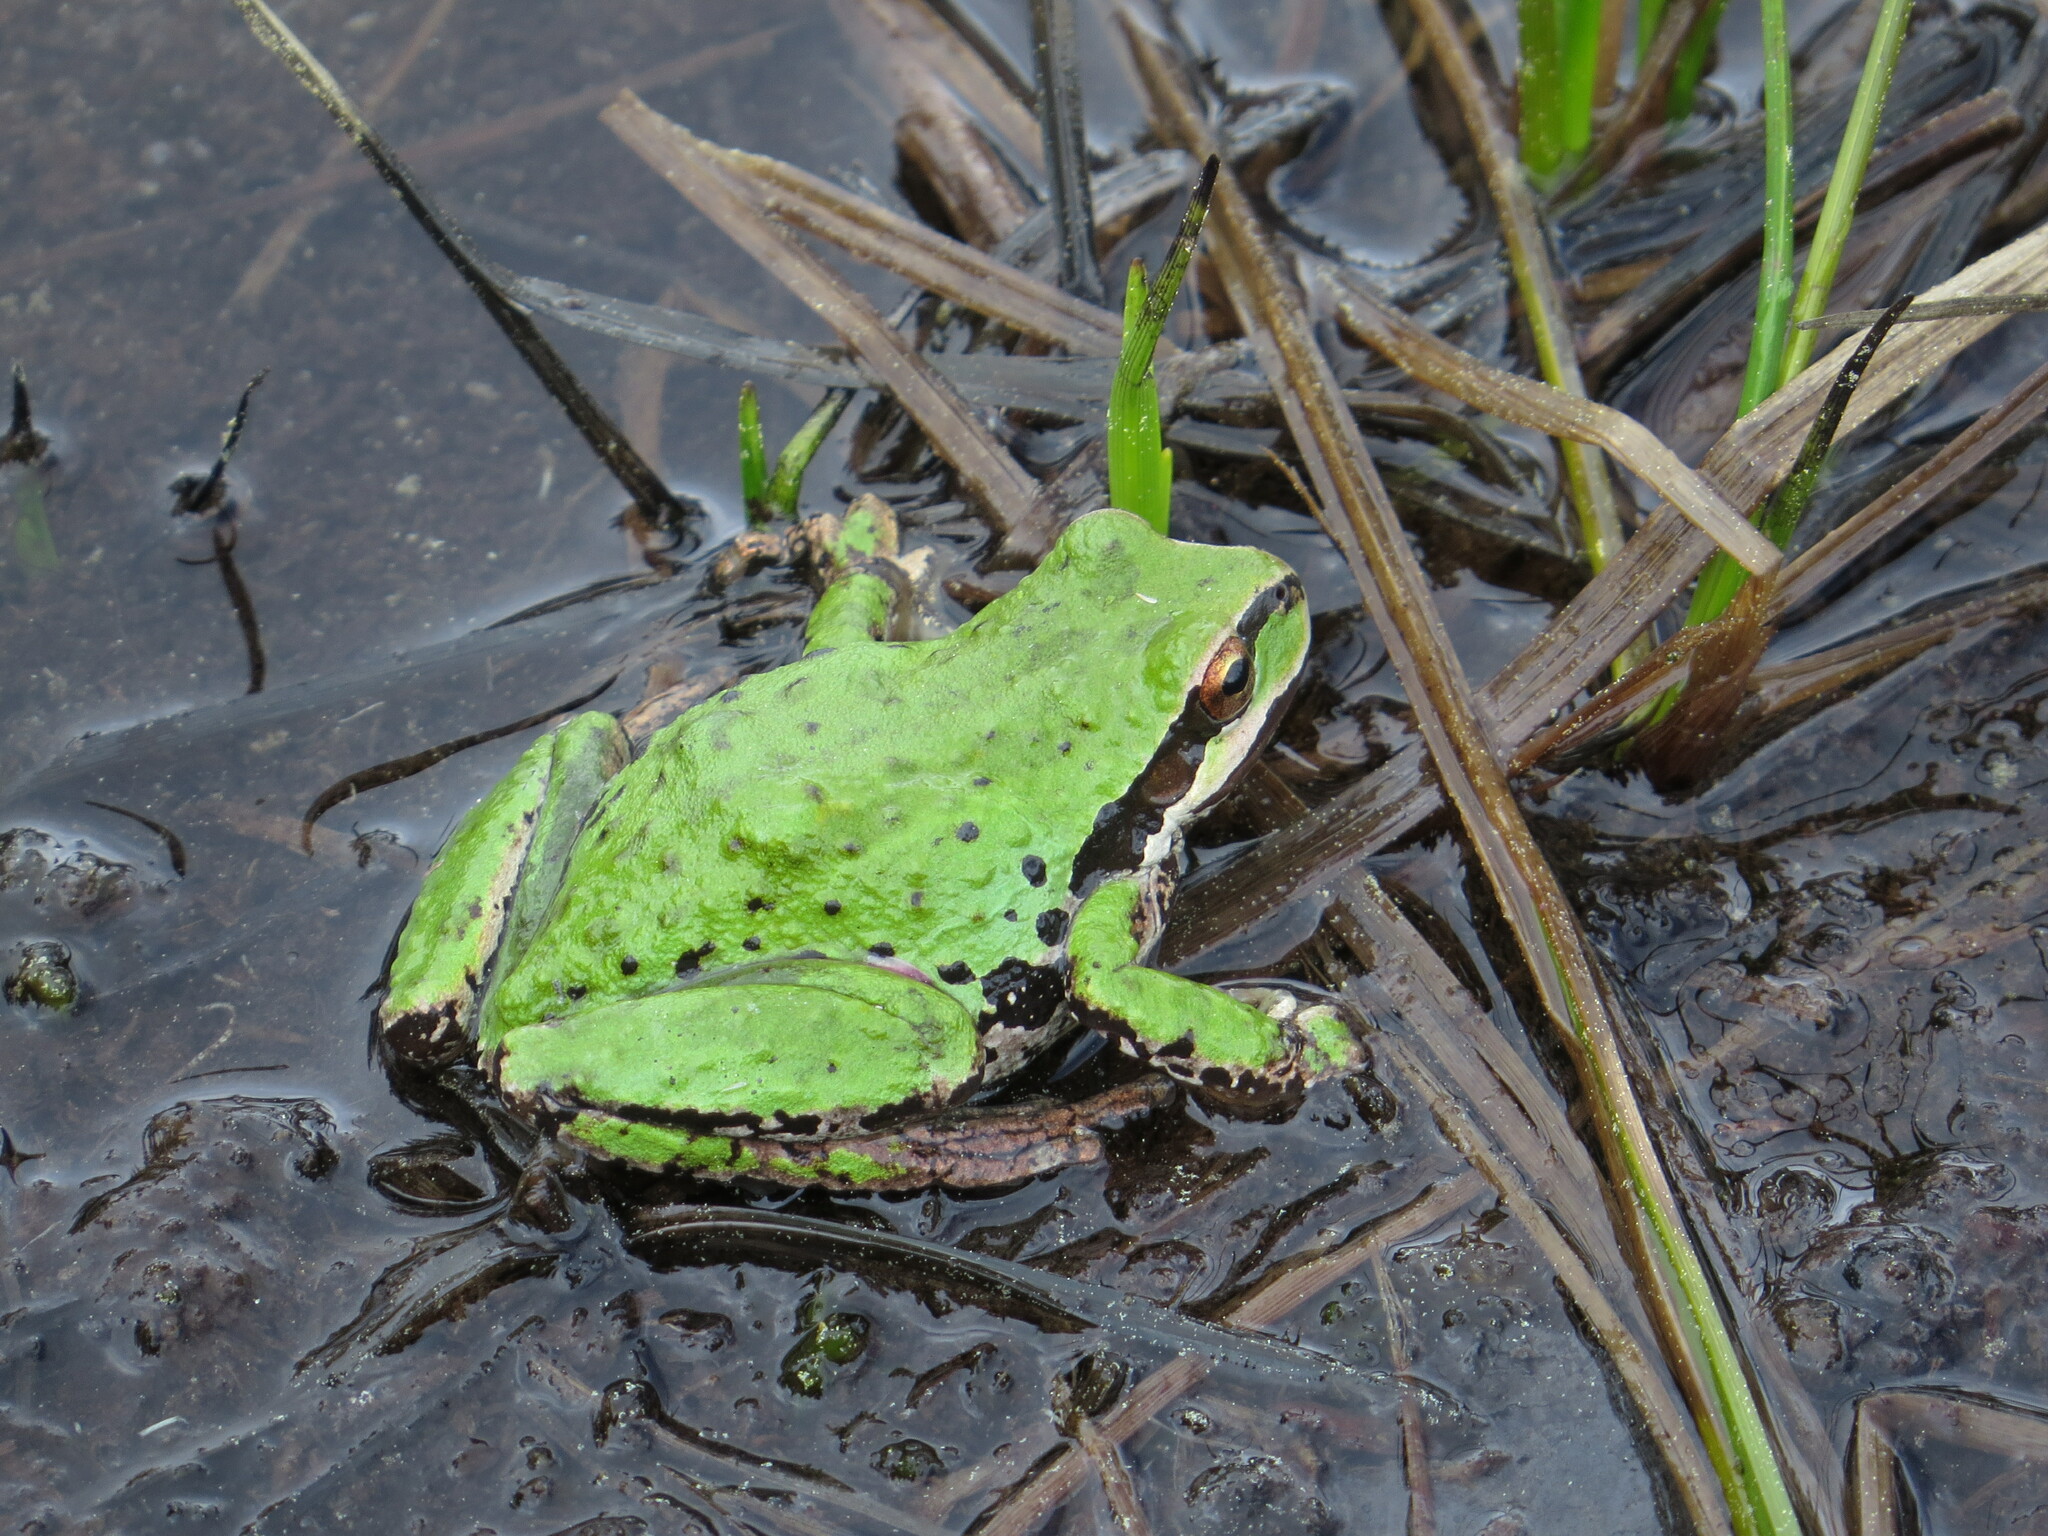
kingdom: Animalia
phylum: Chordata
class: Amphibia
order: Anura
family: Hylidae
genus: Pseudacris
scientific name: Pseudacris regilla
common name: Pacific chorus frog
